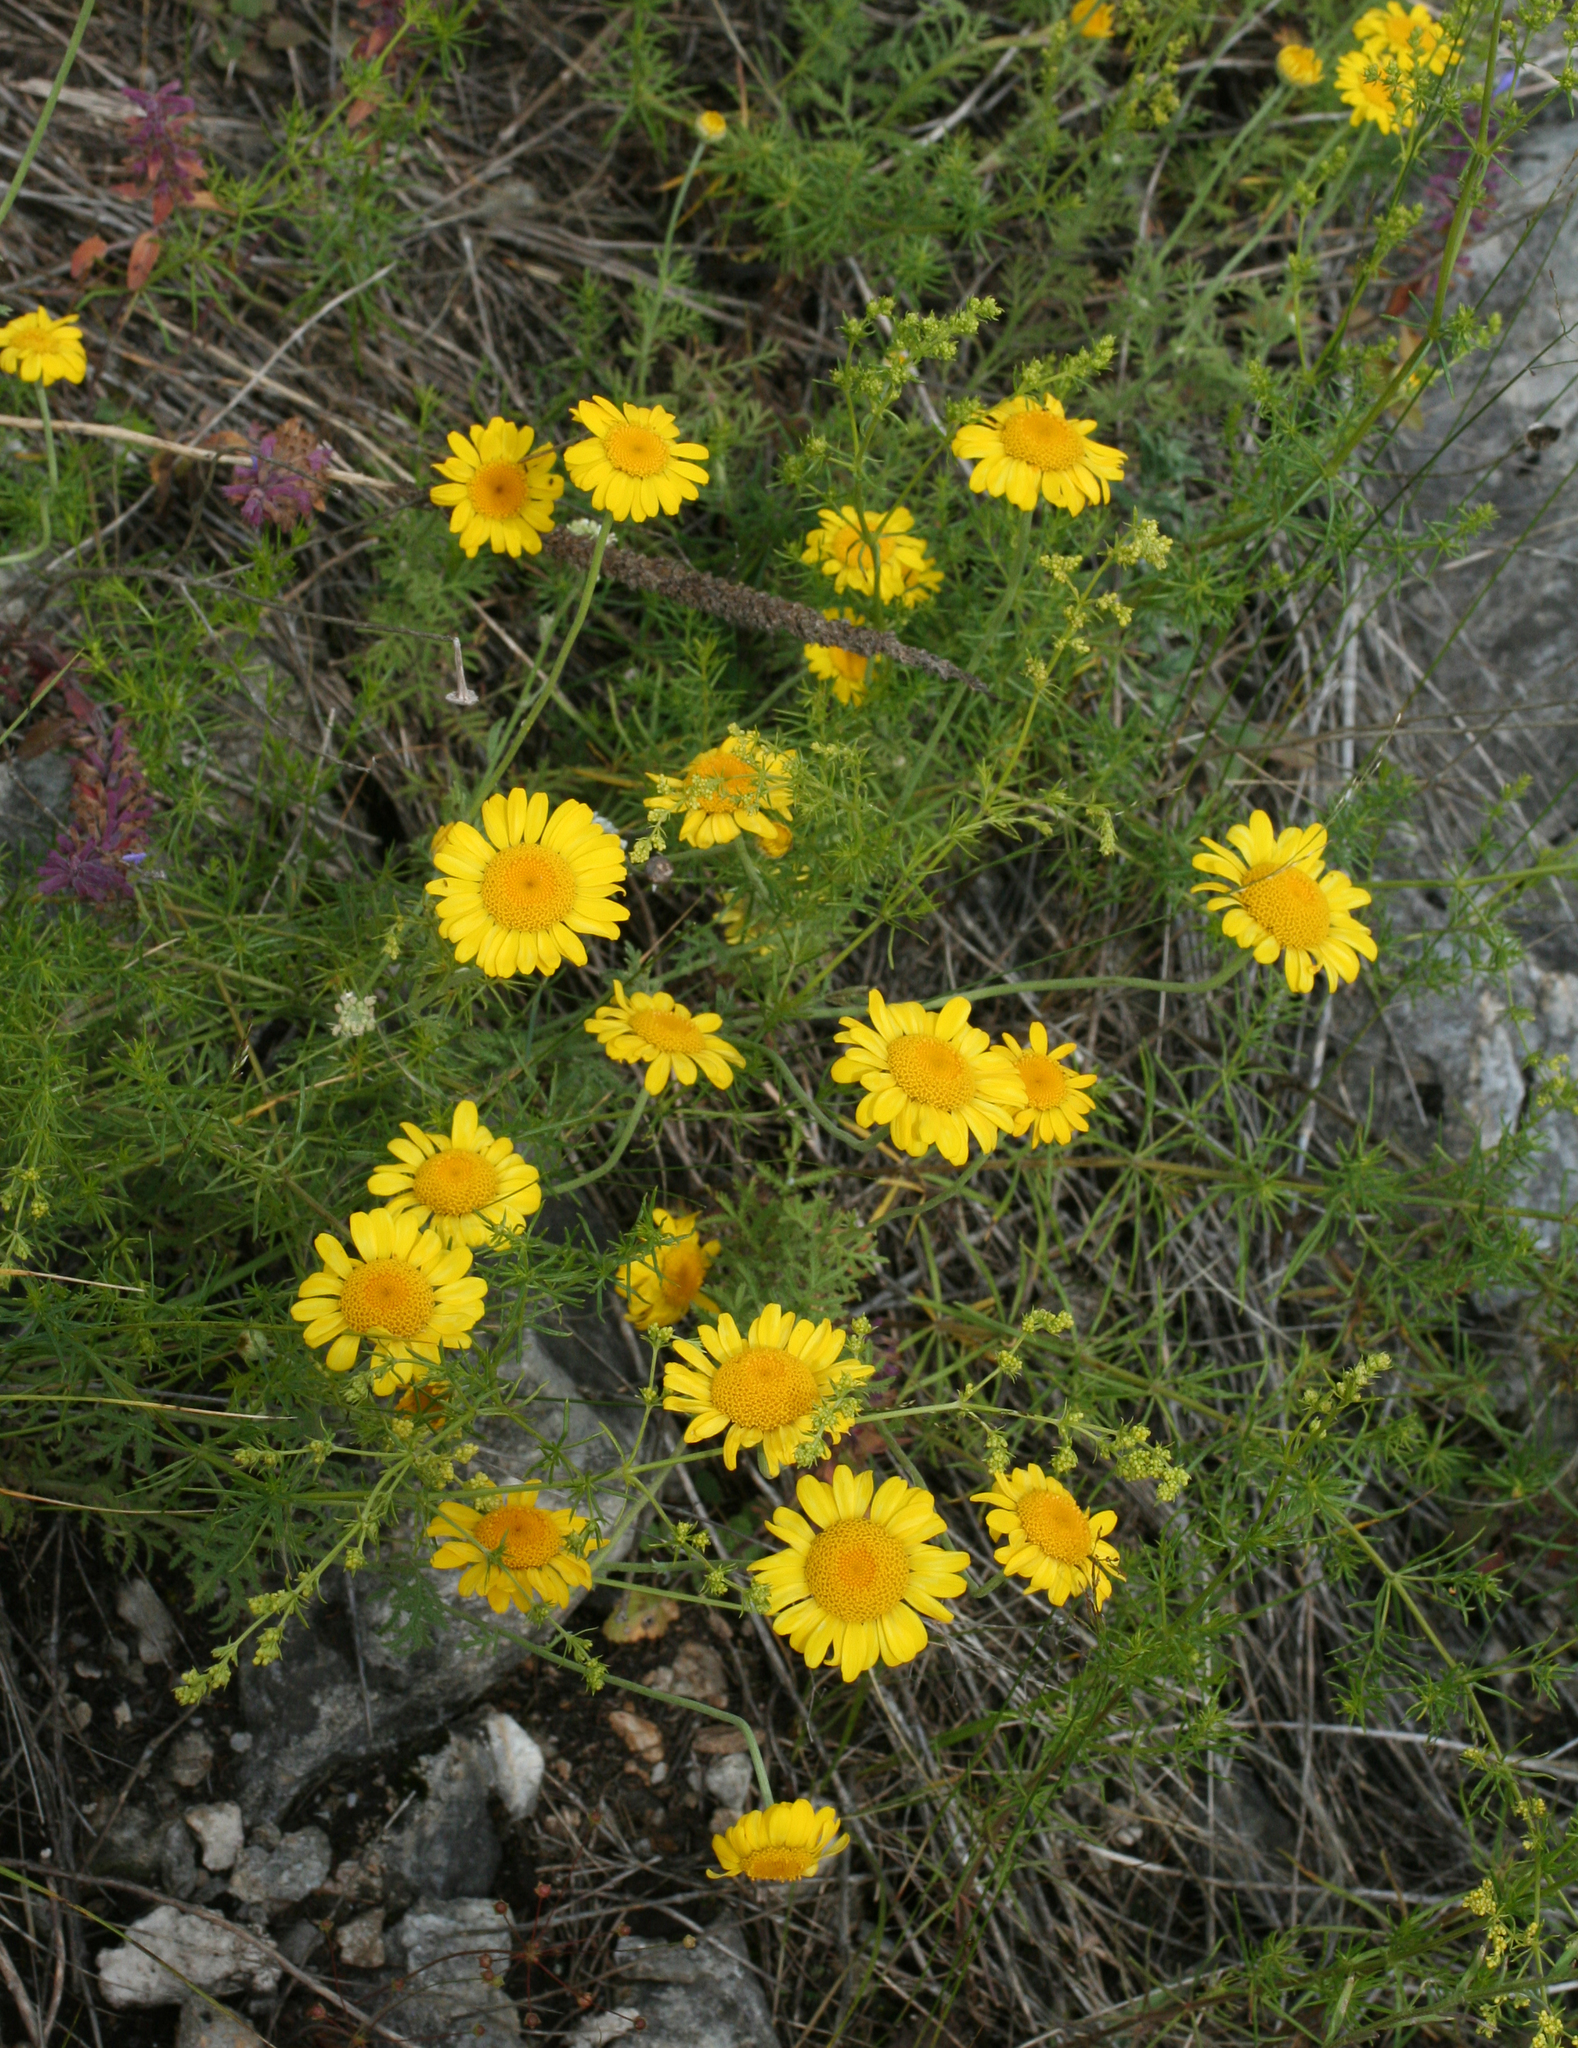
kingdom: Plantae
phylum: Tracheophyta
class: Magnoliopsida
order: Asterales
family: Asteraceae
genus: Cota
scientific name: Cota tinctoria
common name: Golden chamomile
